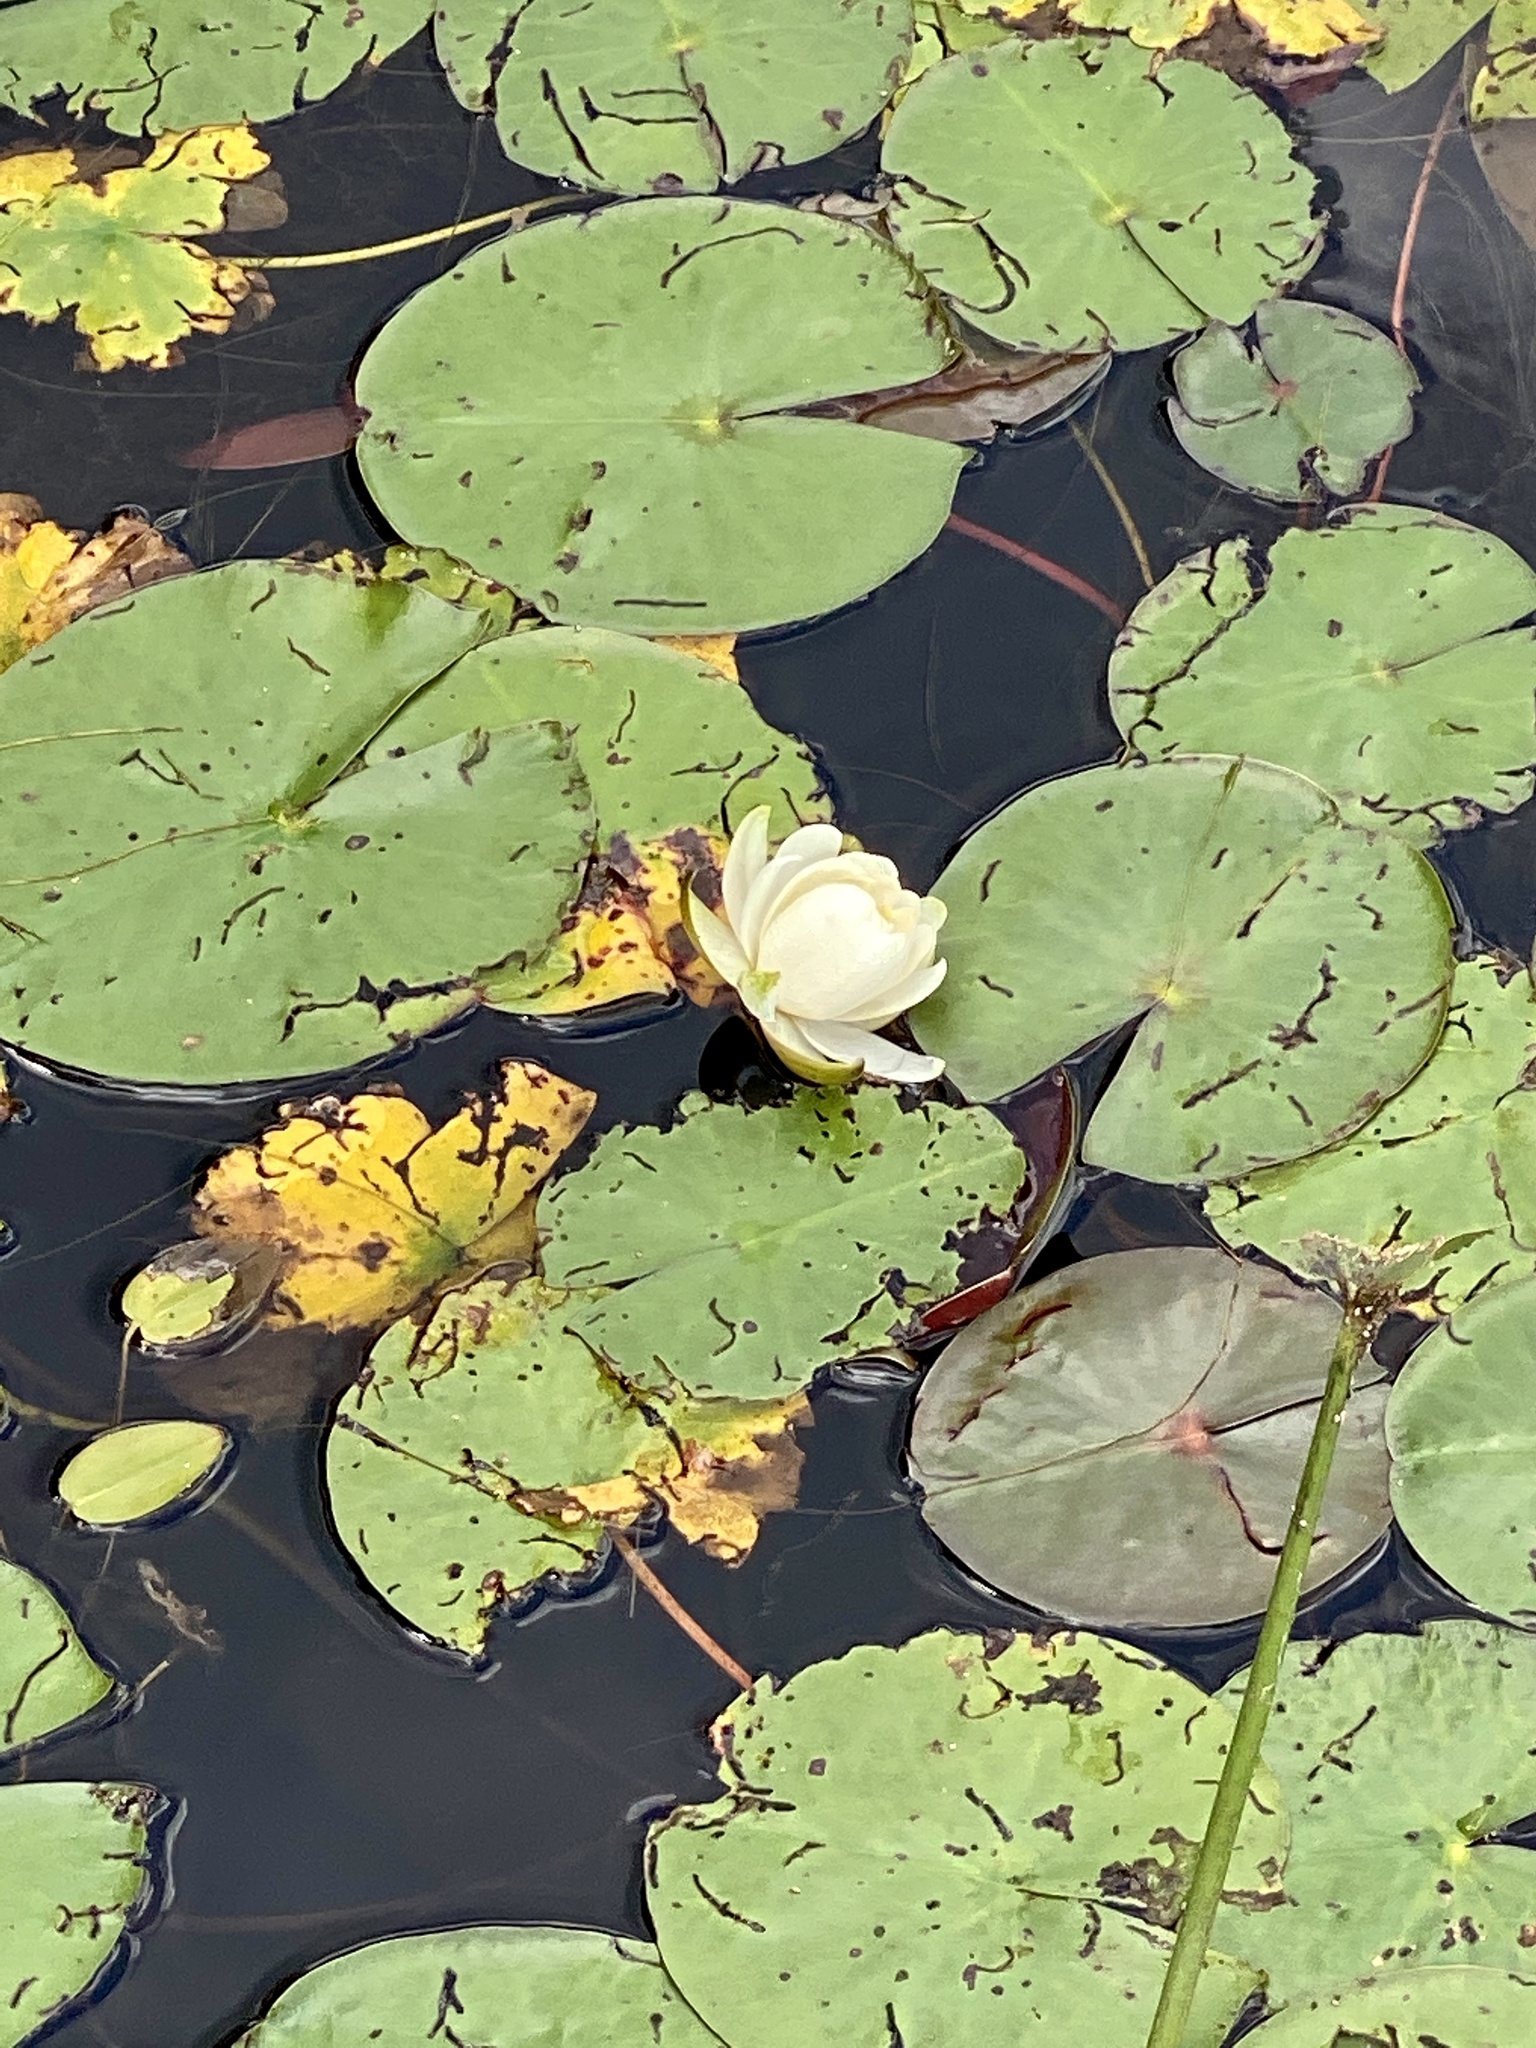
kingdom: Plantae
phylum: Tracheophyta
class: Magnoliopsida
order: Nymphaeales
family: Nymphaeaceae
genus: Nymphaea
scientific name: Nymphaea odorata
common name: Fragrant water-lily
